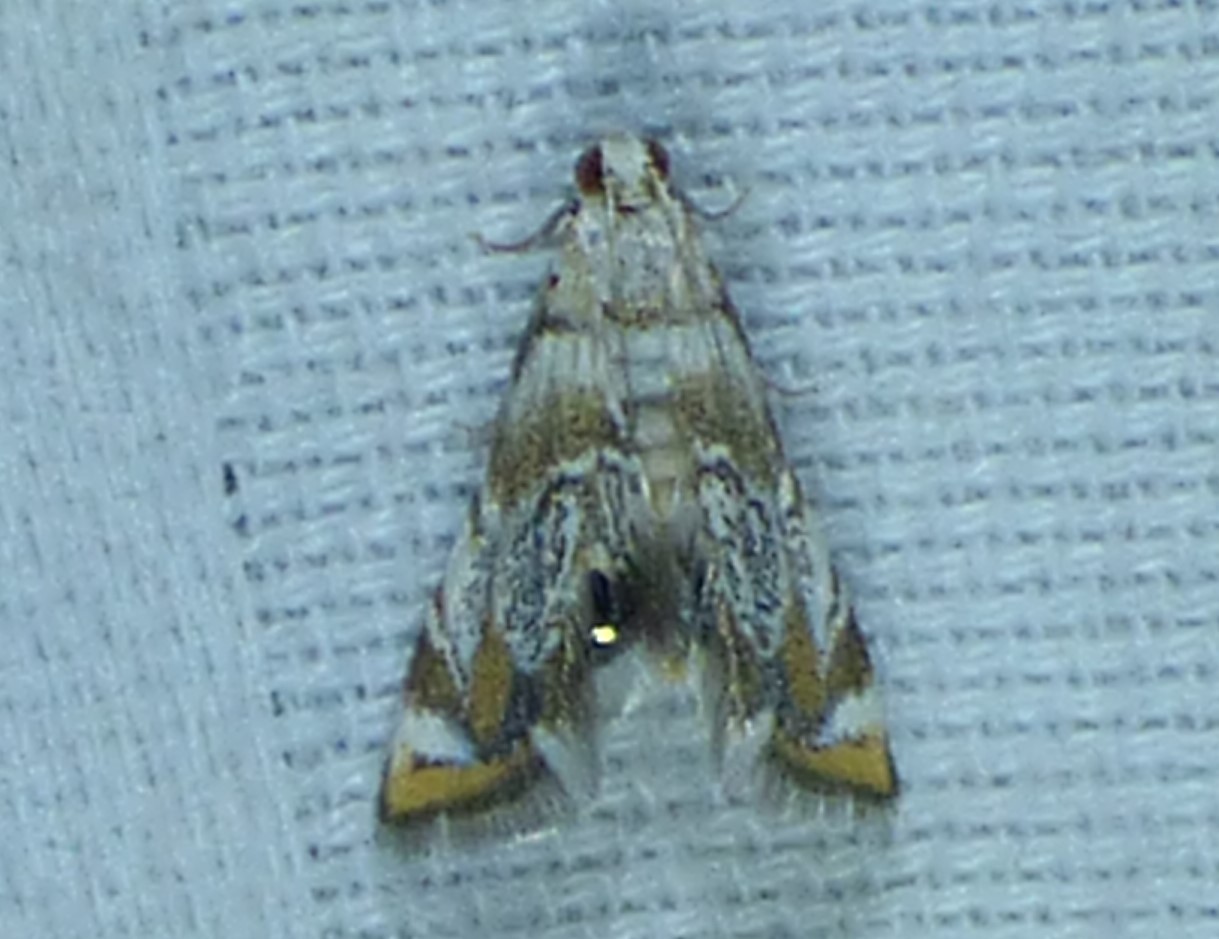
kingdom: Animalia
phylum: Arthropoda
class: Insecta
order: Lepidoptera
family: Crambidae
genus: Eoparargyractis
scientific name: Eoparargyractis irroratalis
